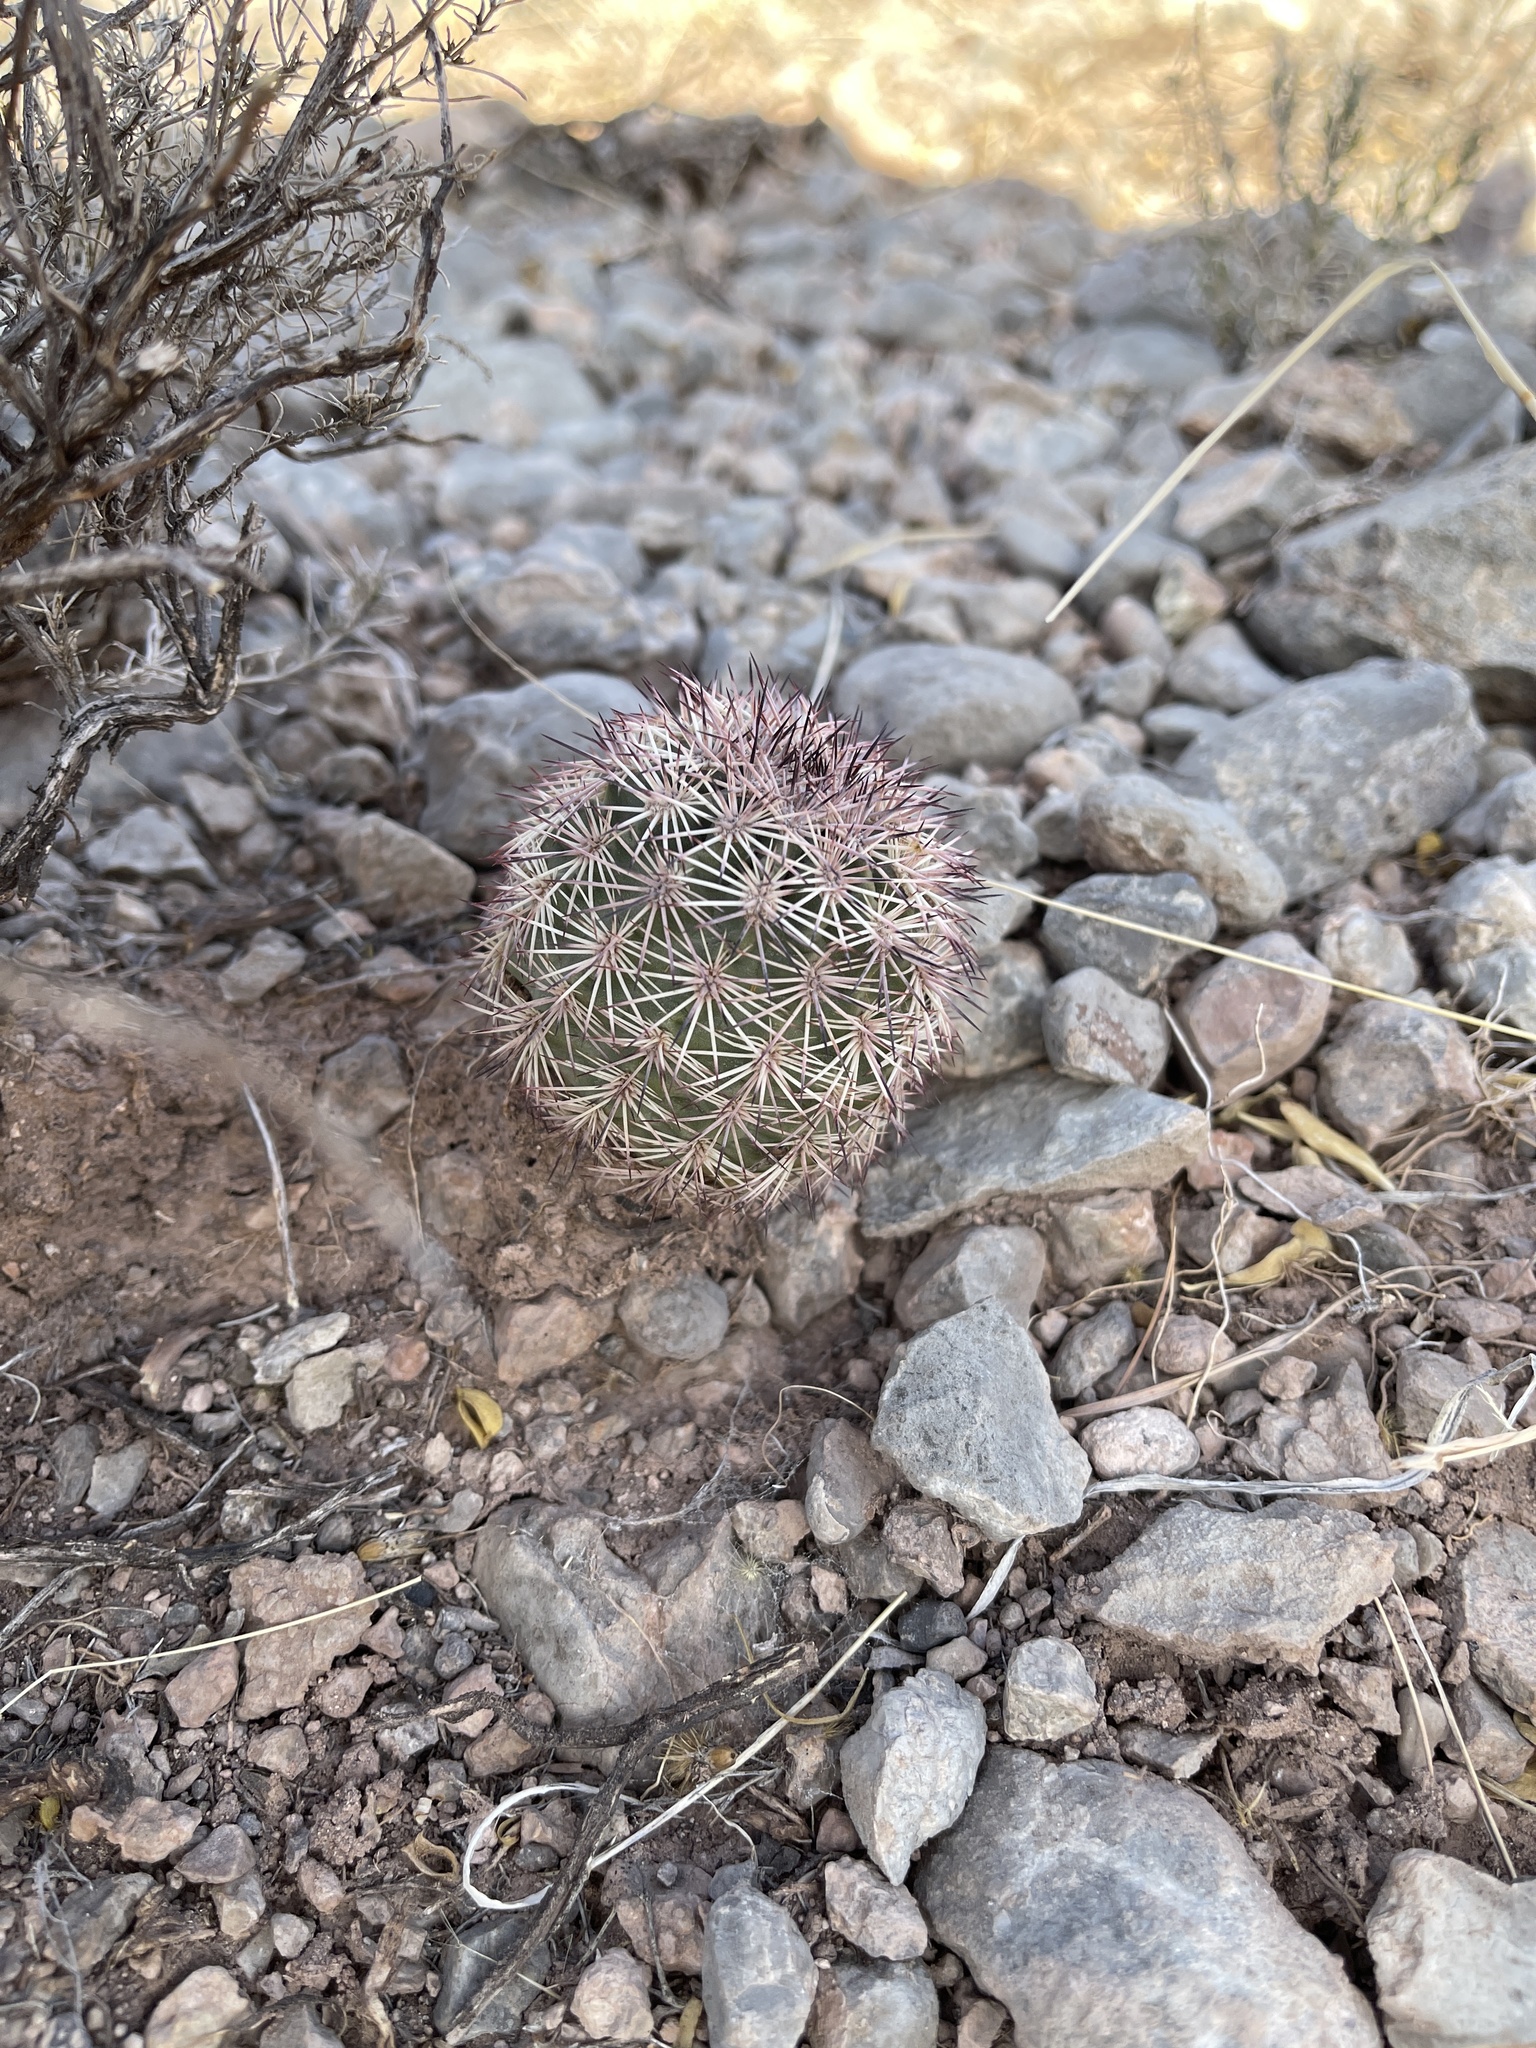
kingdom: Plantae
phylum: Tracheophyta
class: Magnoliopsida
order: Caryophyllales
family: Cactaceae
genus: Echinocereus
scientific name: Echinocereus dasyacanthus
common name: Spiny hedgehog cactus
